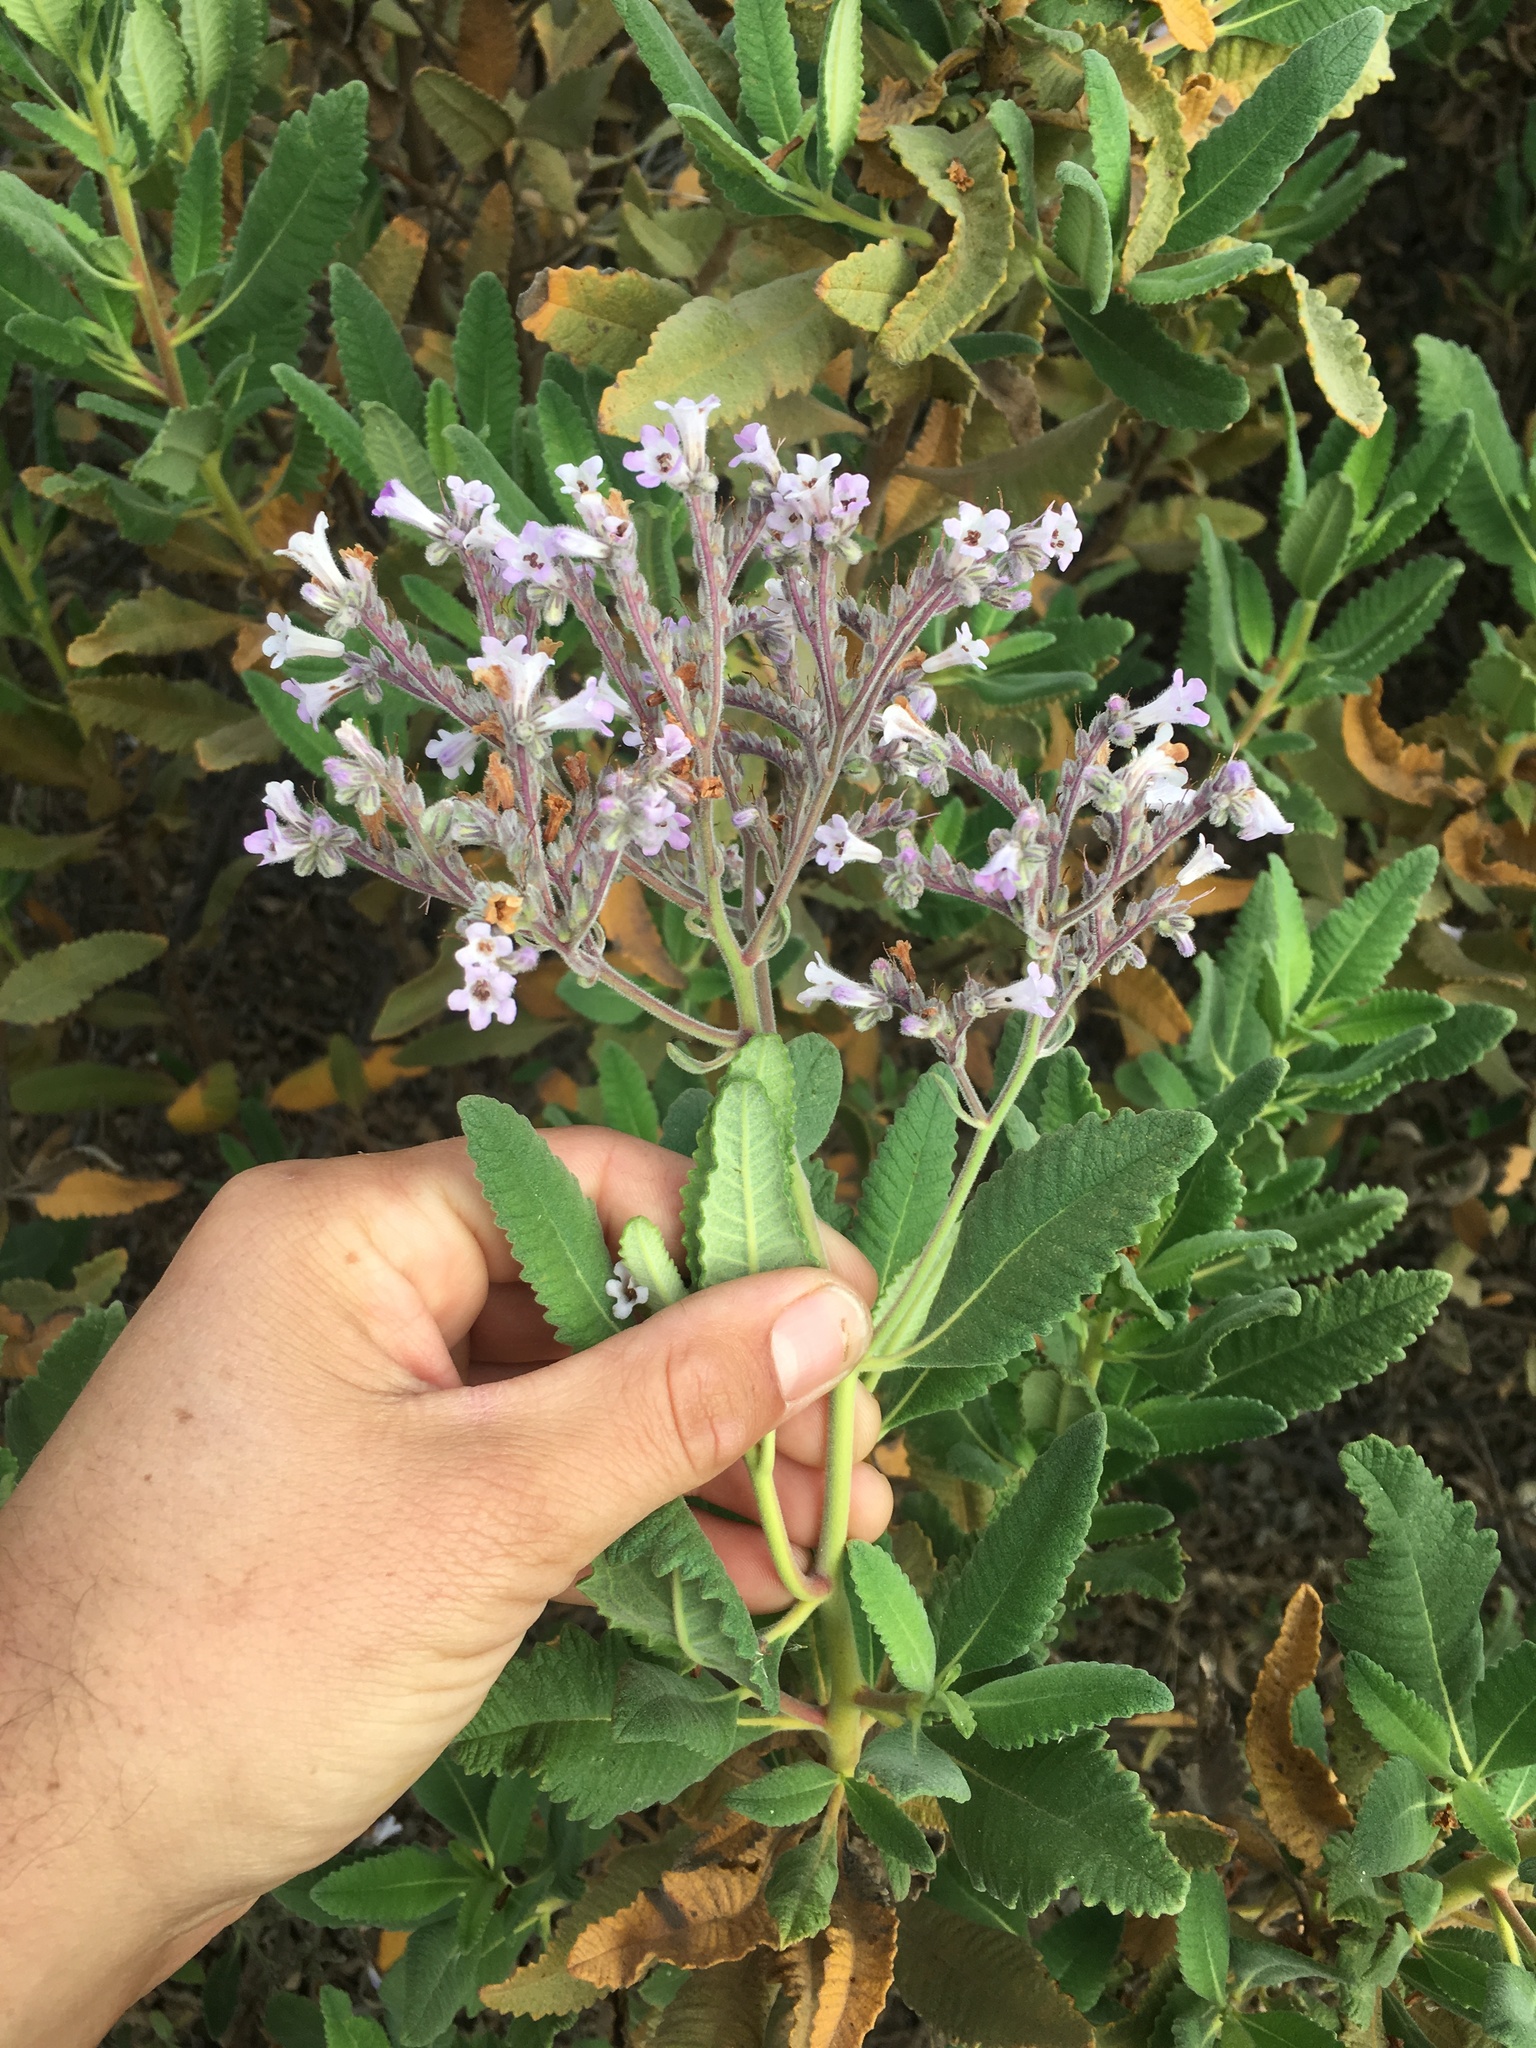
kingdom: Plantae
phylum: Tracheophyta
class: Magnoliopsida
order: Boraginales
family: Namaceae
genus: Eriodictyon
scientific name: Eriodictyon crassifolium
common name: Thick-leaf yerba-santa
